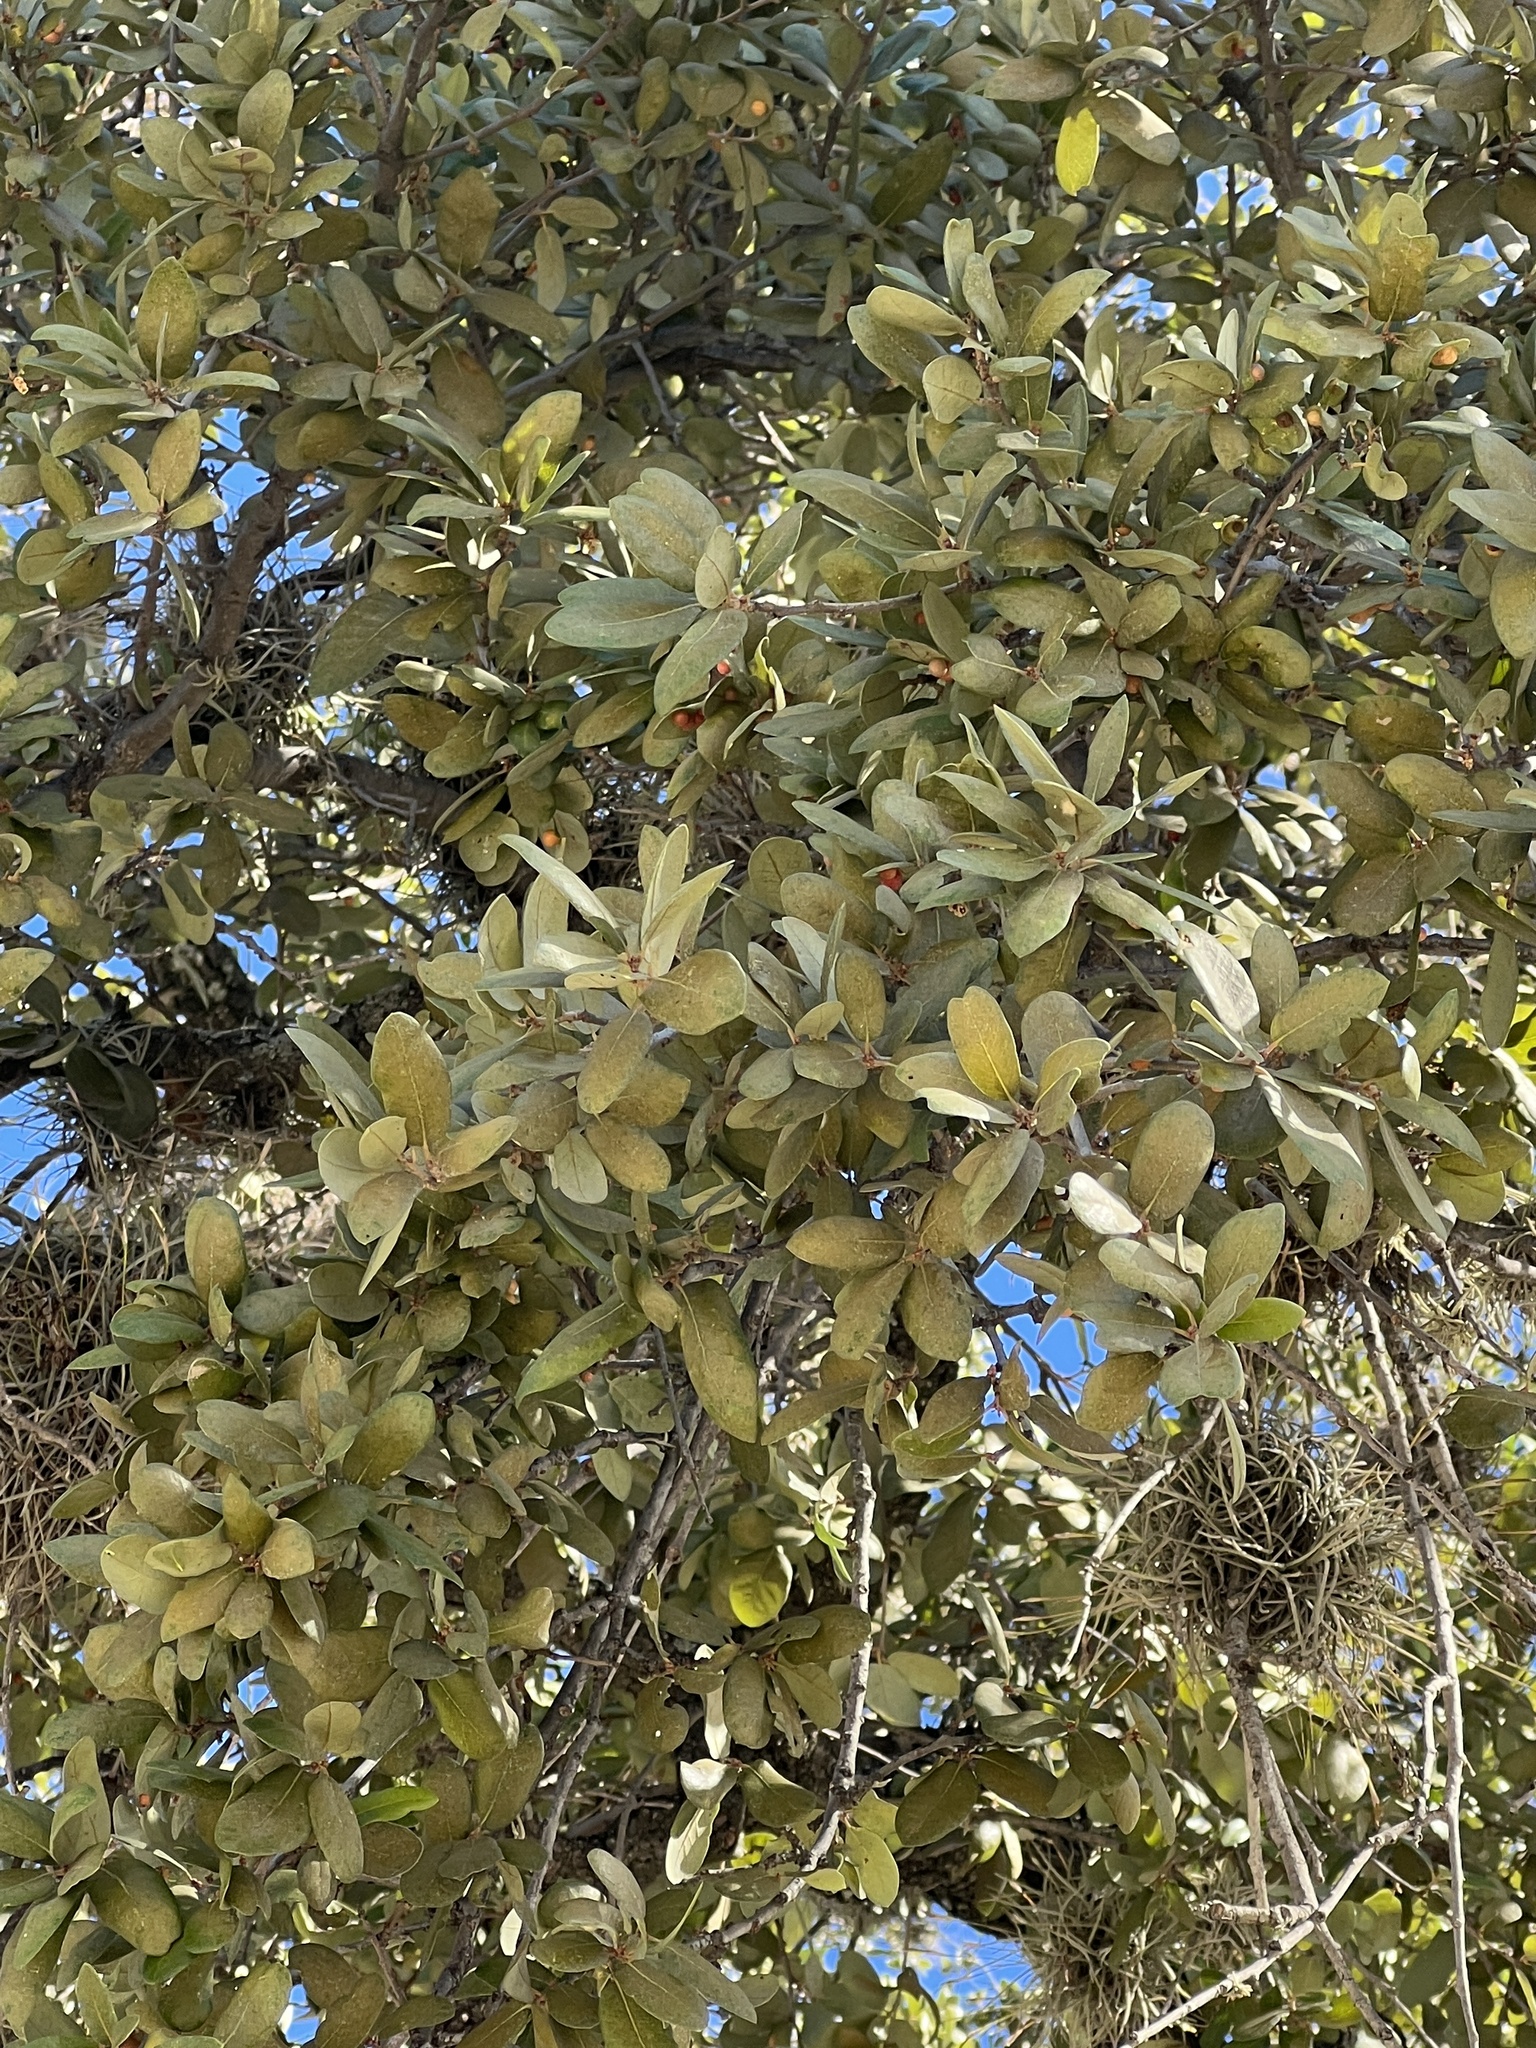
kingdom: Plantae
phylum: Tracheophyta
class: Magnoliopsida
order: Fagales
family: Fagaceae
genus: Quercus
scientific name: Quercus fusiformis
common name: Texas live oak
